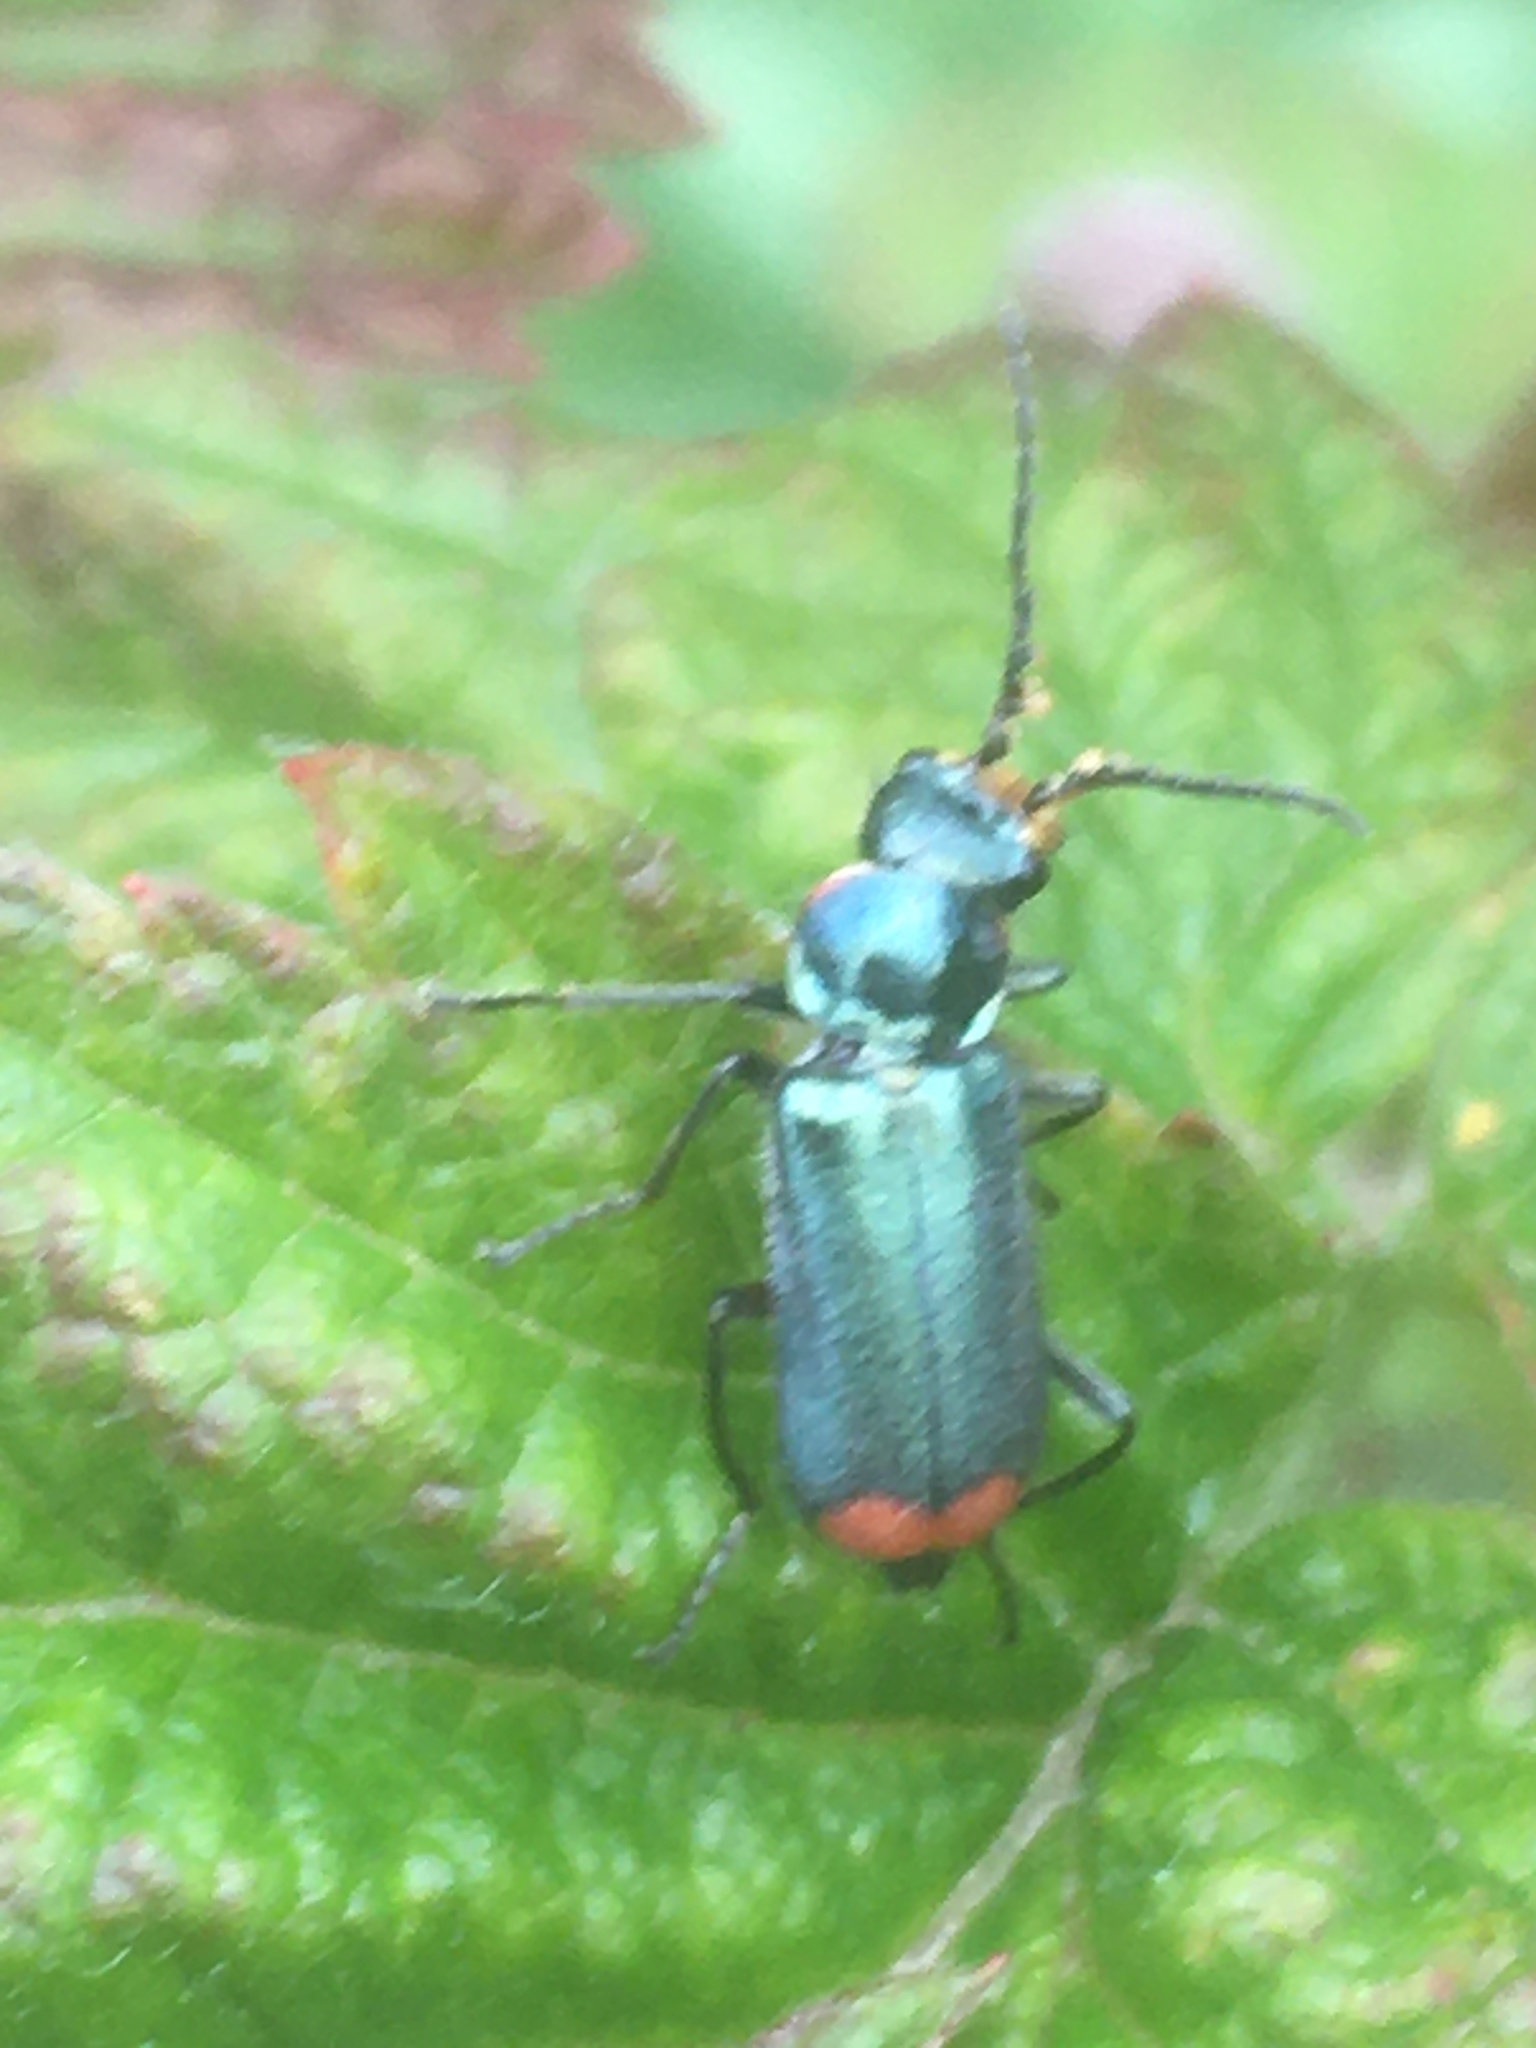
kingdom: Animalia
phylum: Arthropoda
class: Insecta
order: Coleoptera
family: Melyridae
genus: Malachius
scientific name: Malachius bipustulatus
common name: Malachite beetle
